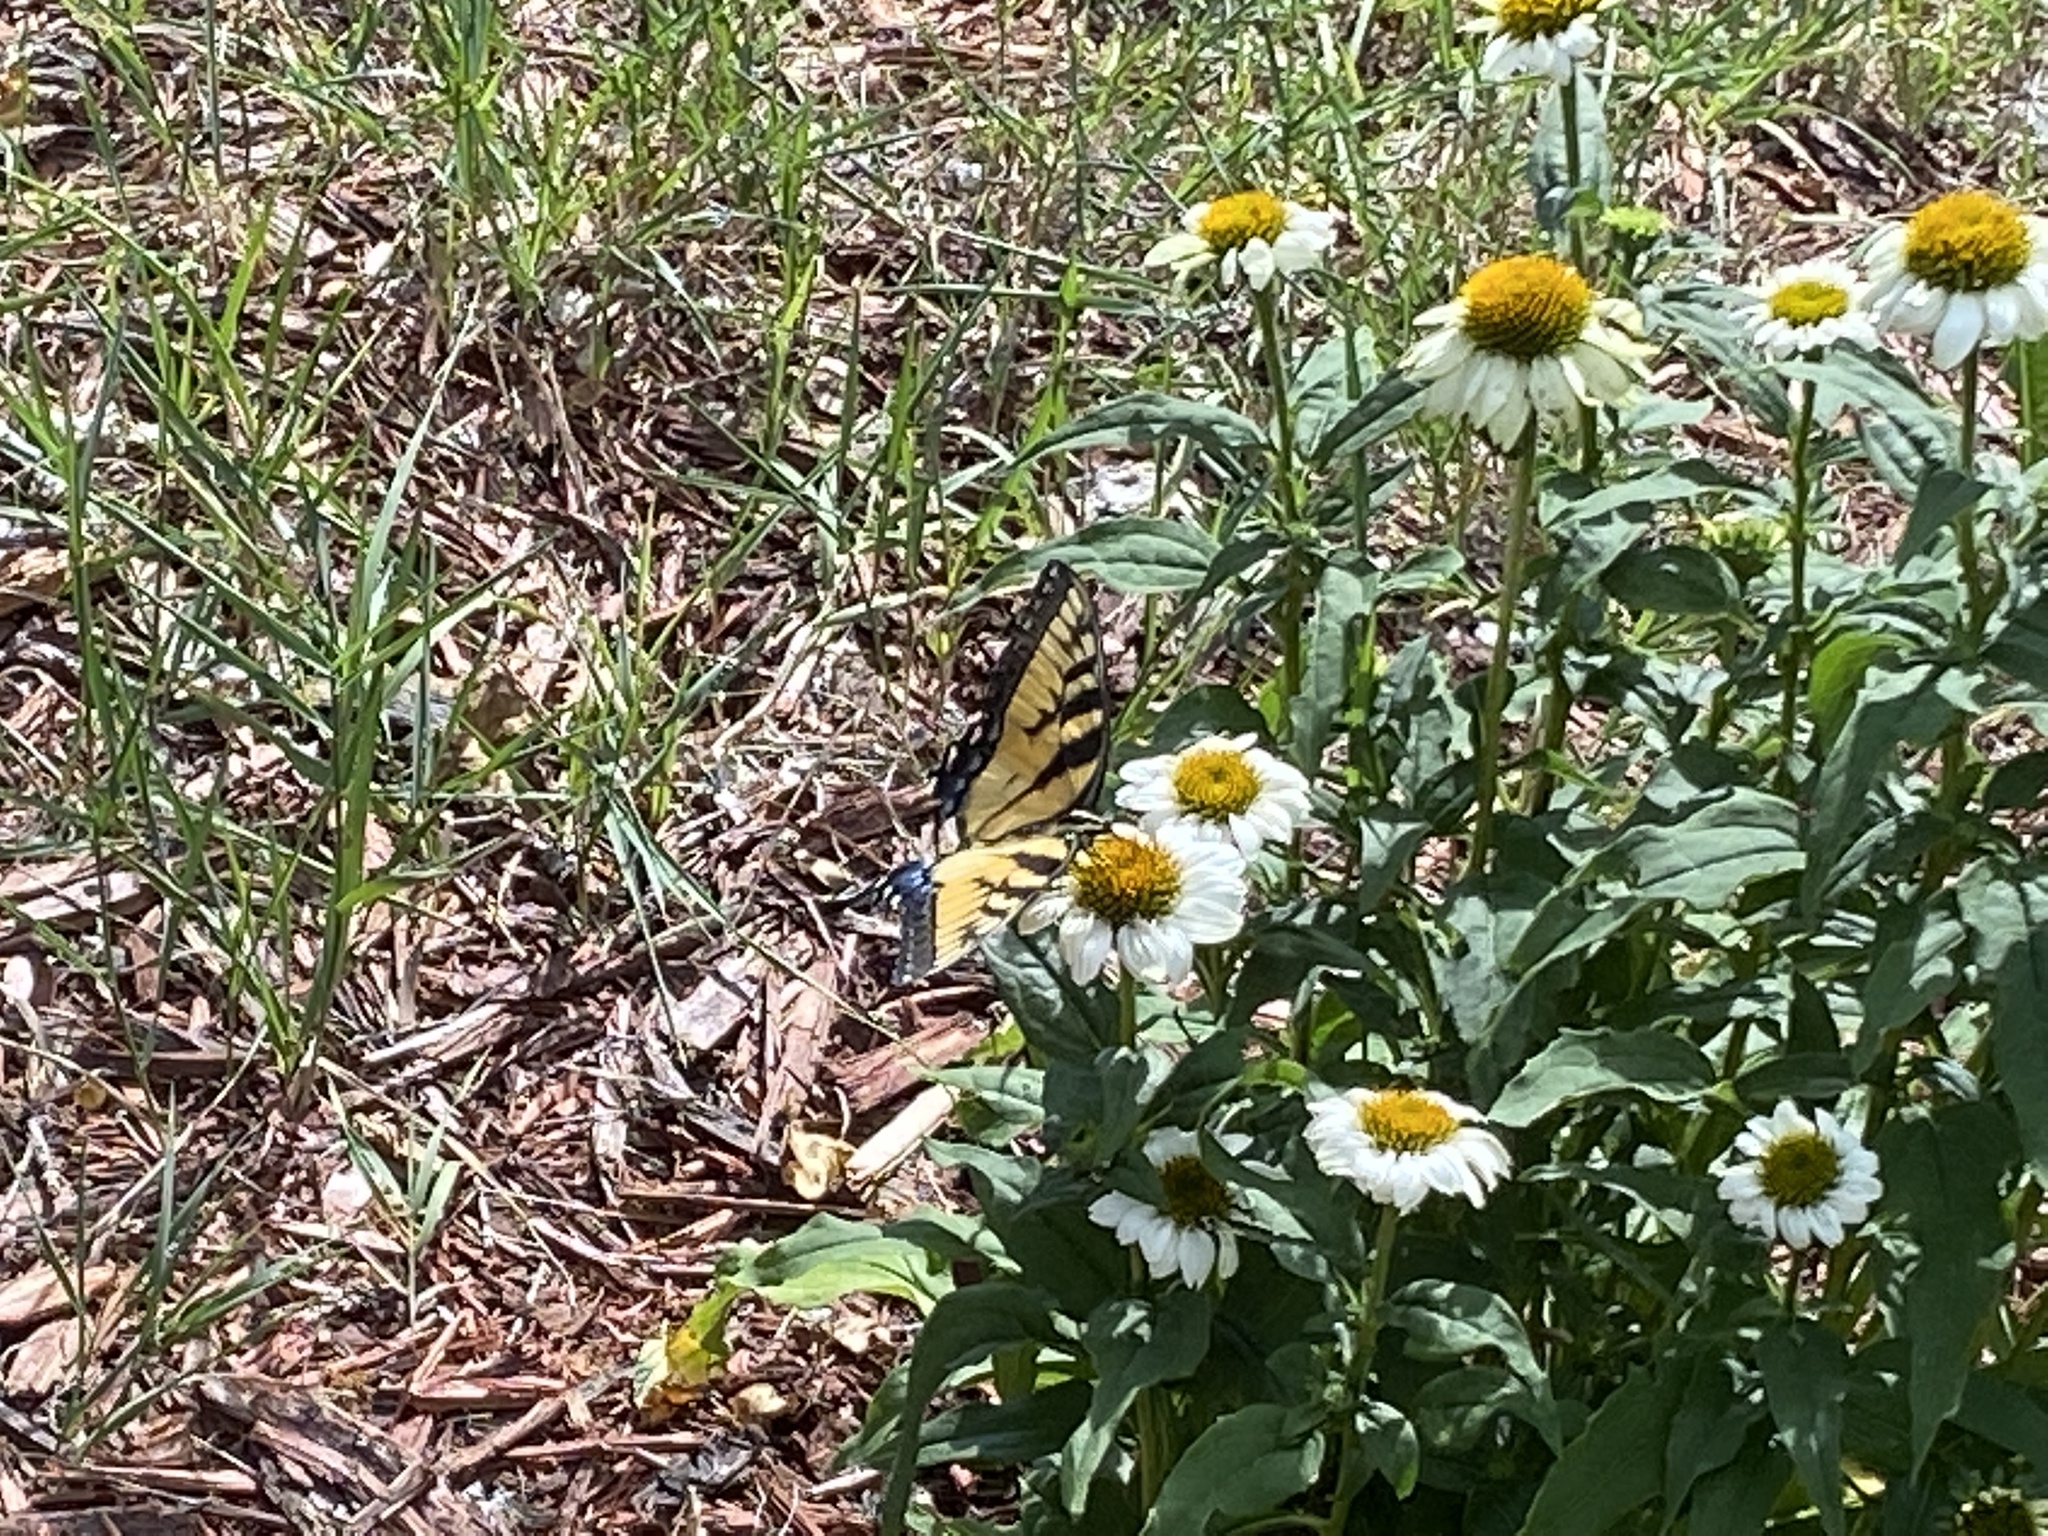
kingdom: Animalia
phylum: Arthropoda
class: Insecta
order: Lepidoptera
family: Papilionidae
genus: Papilio
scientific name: Papilio glaucus
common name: Tiger swallowtail
